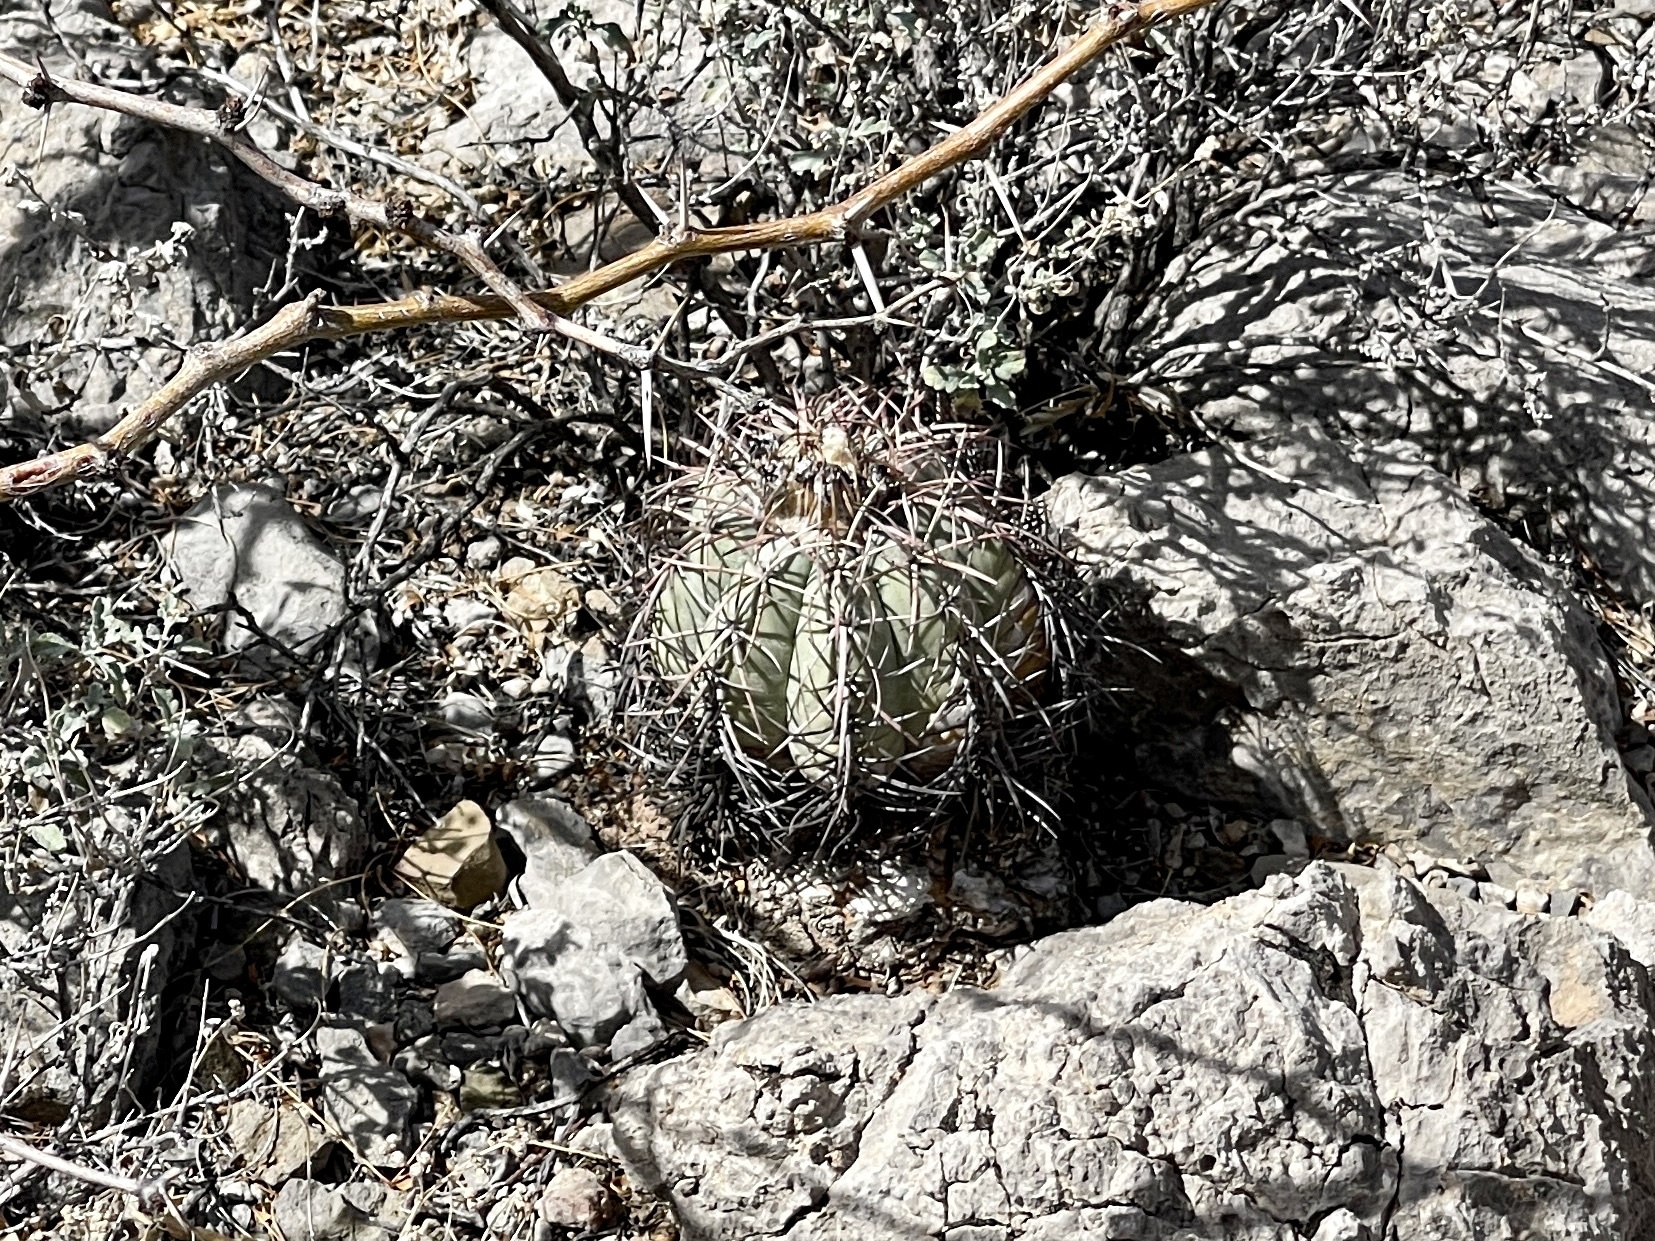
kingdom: Plantae
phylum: Tracheophyta
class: Magnoliopsida
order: Caryophyllales
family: Cactaceae
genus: Echinocactus
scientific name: Echinocactus horizonthalonius
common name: Devilshead
